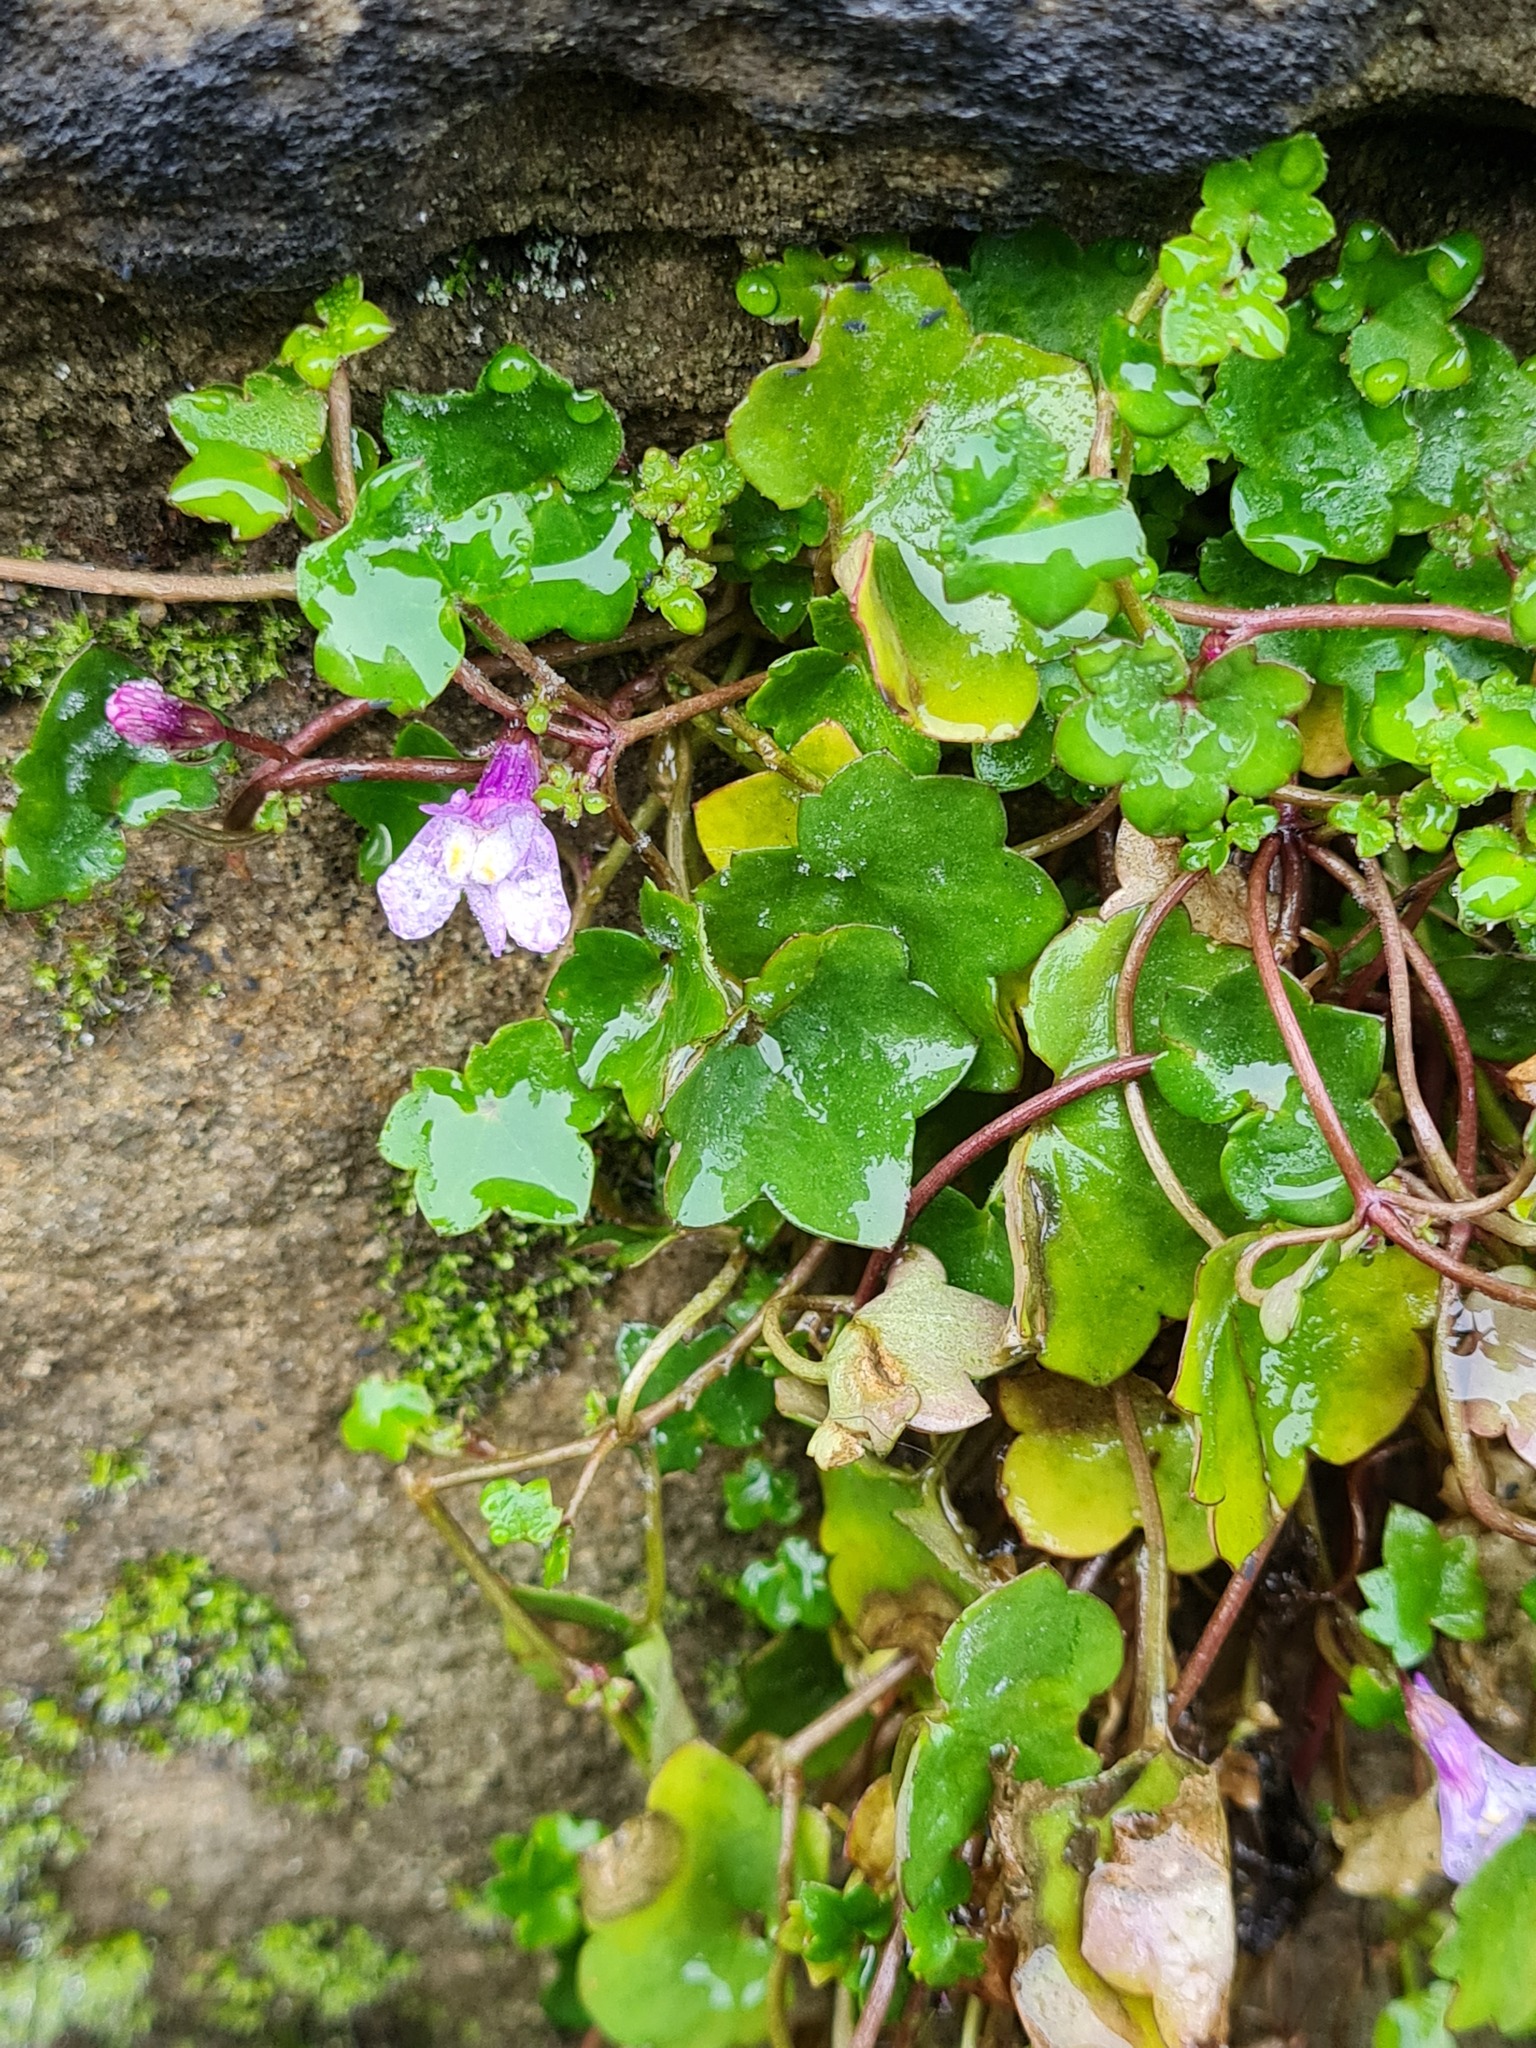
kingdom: Plantae
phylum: Tracheophyta
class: Magnoliopsida
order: Lamiales
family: Plantaginaceae
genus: Cymbalaria
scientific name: Cymbalaria muralis
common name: Ivy-leaved toadflax
